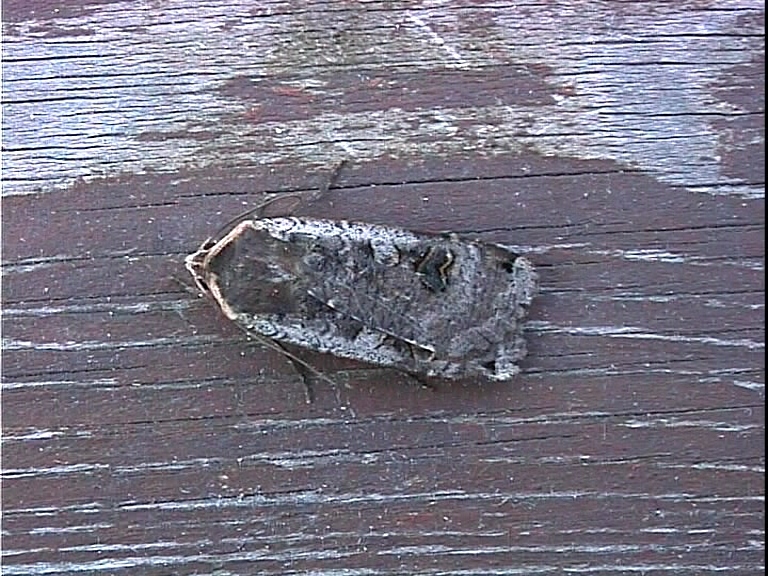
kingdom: Animalia
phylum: Arthropoda
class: Insecta
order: Lepidoptera
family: Noctuidae
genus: Noctua
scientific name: Noctua pronuba
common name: Large yellow underwing
